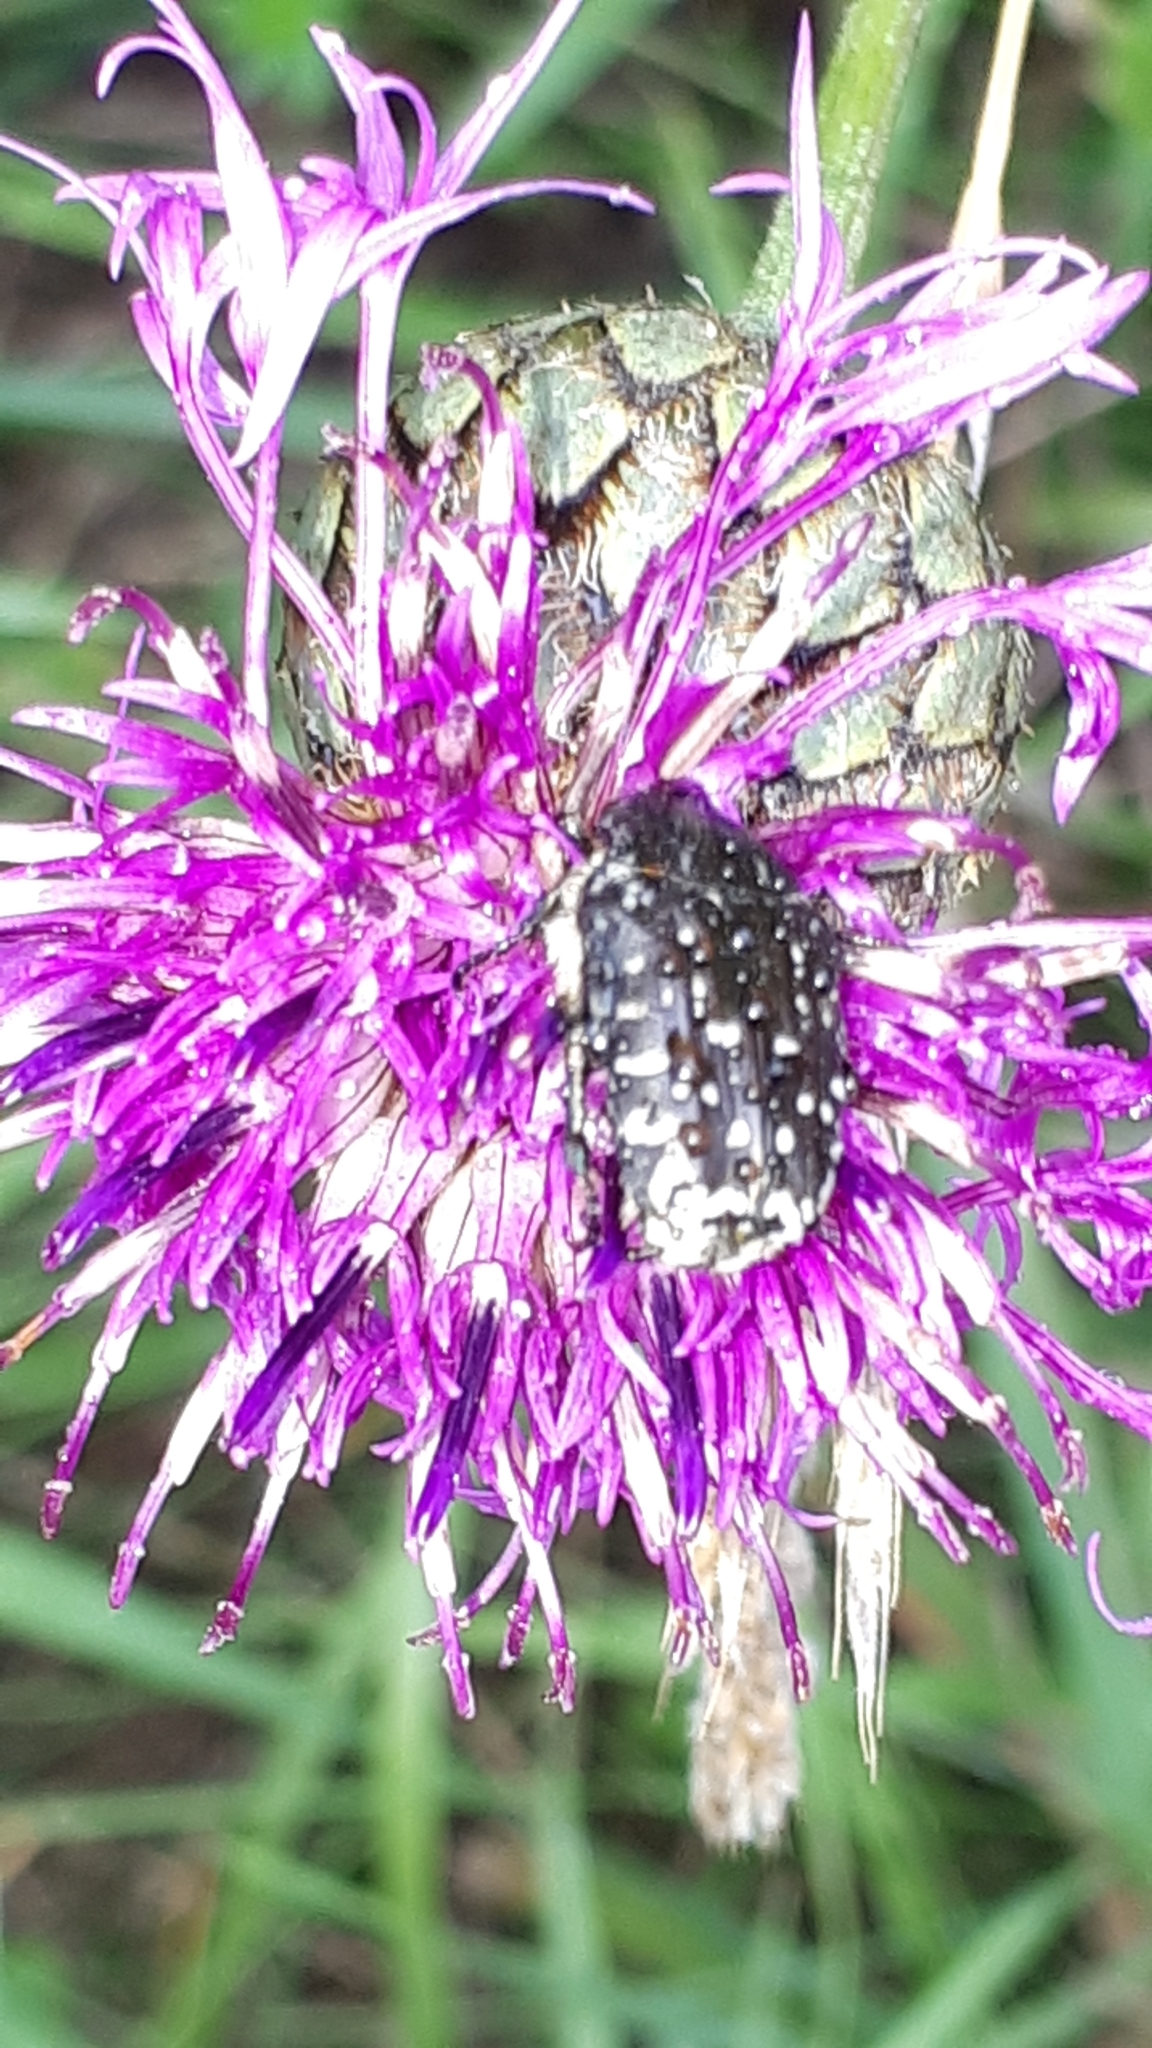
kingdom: Animalia
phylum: Arthropoda
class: Insecta
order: Coleoptera
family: Scarabaeidae
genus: Oxythyrea
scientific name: Oxythyrea funesta
